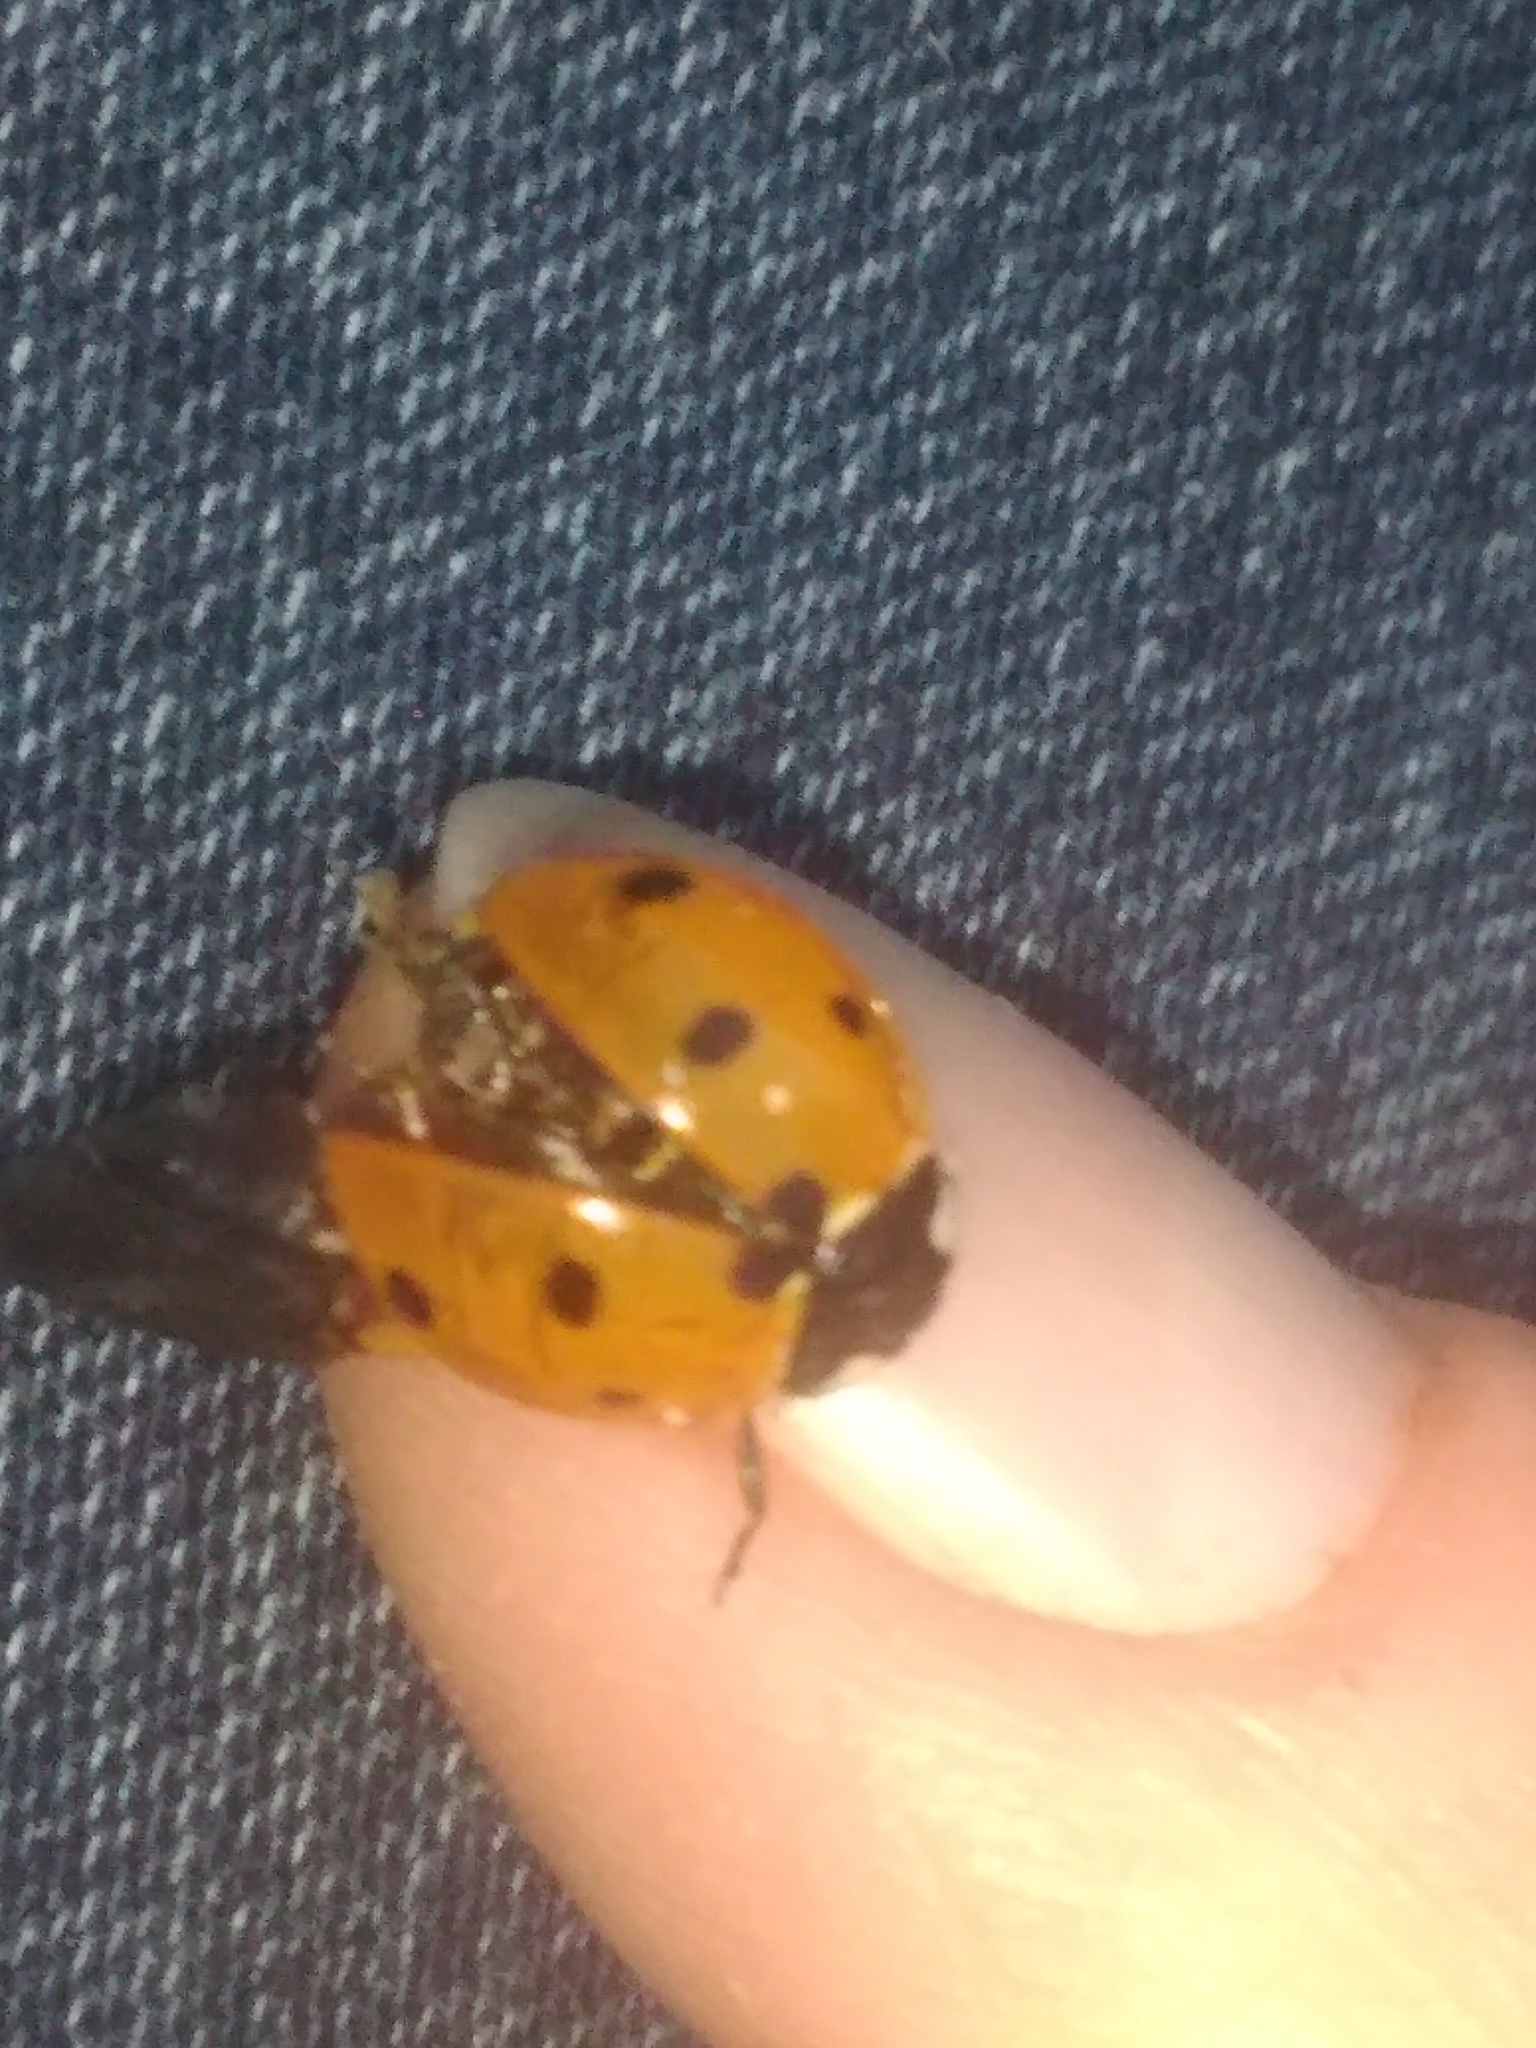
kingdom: Animalia
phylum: Arthropoda
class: Insecta
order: Coleoptera
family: Coccinellidae
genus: Coccinella
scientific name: Coccinella septempunctata
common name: Sevenspotted lady beetle
